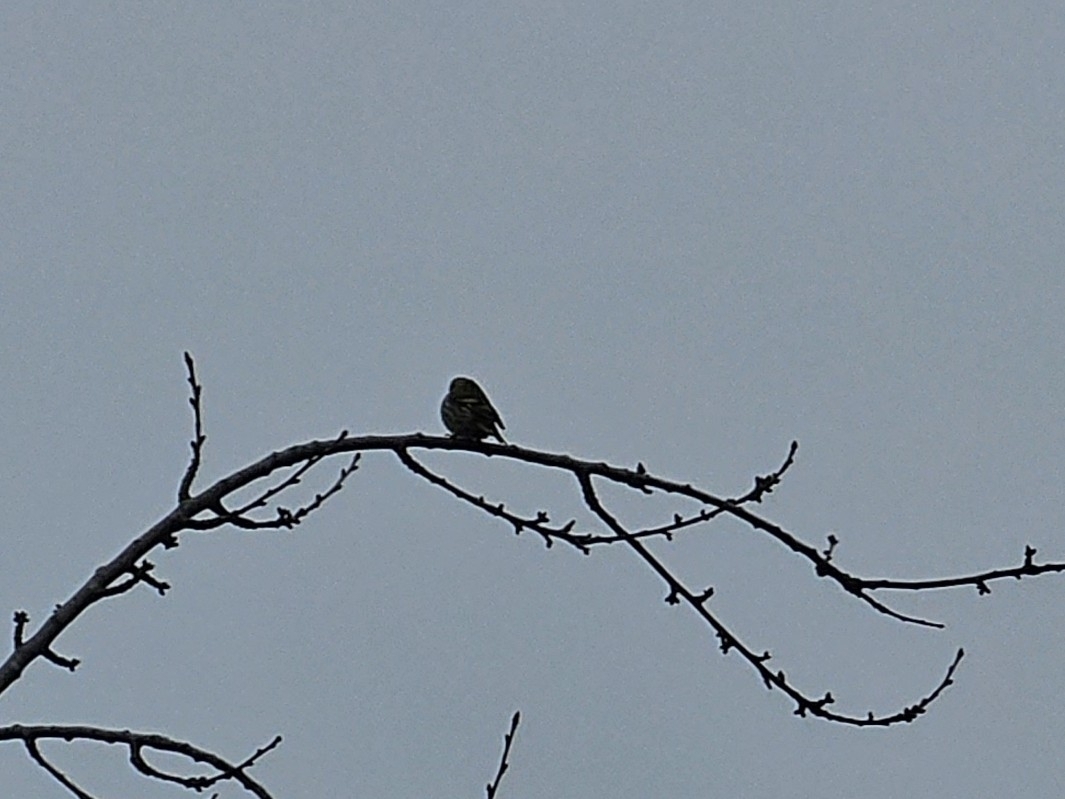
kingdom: Animalia
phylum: Chordata
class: Aves
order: Passeriformes
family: Fringillidae
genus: Spinus
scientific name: Spinus spinus
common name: Eurasian siskin
